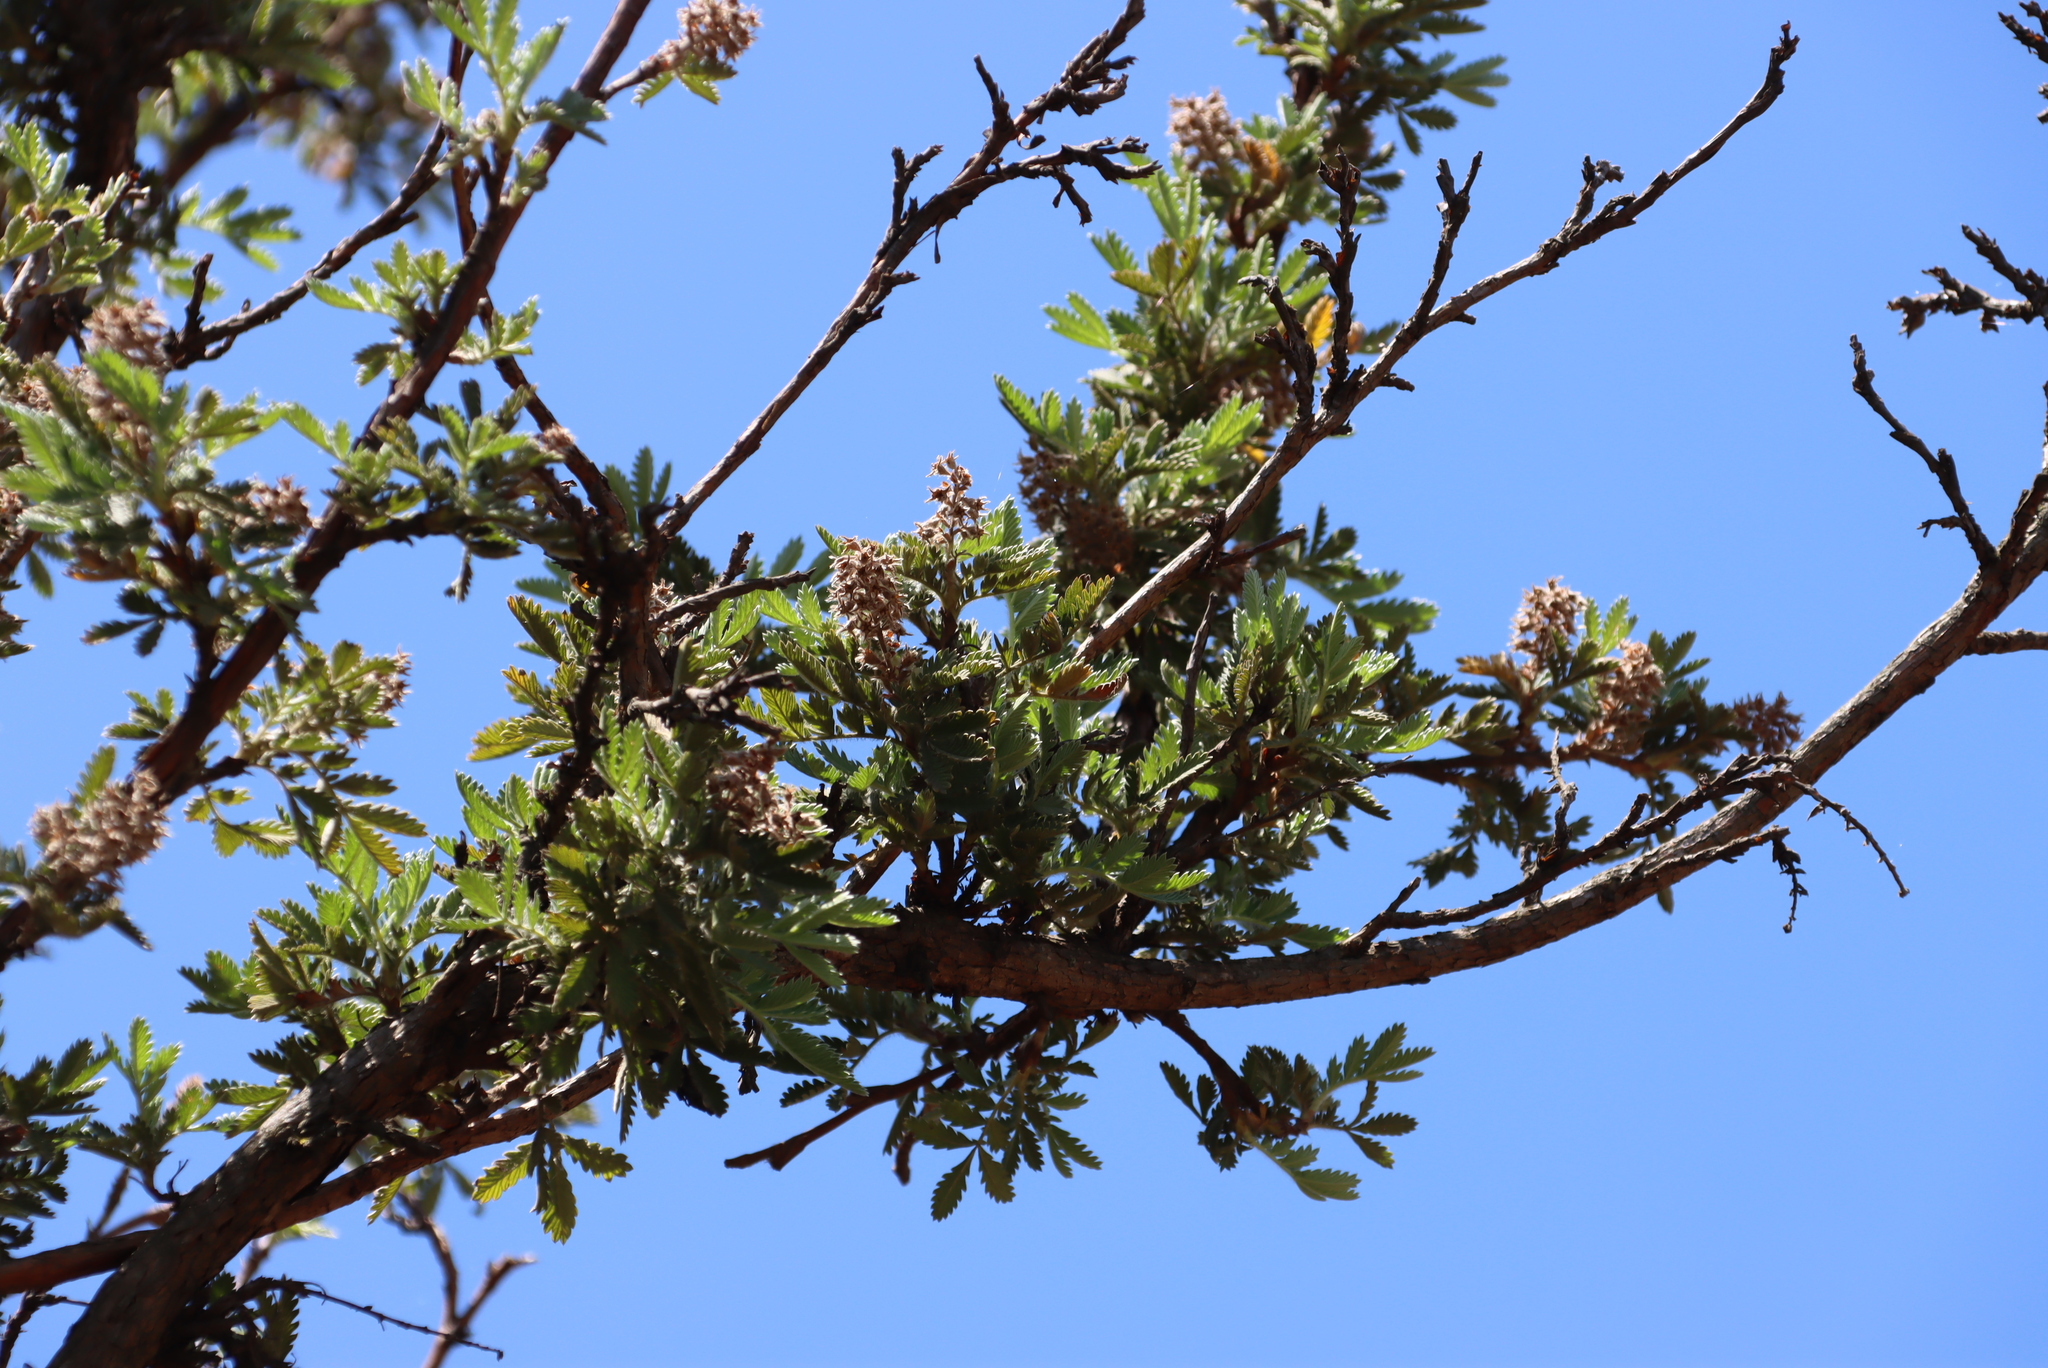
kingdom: Plantae
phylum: Tracheophyta
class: Magnoliopsida
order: Rosales
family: Rosaceae
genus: Leucosidea
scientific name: Leucosidea sericea
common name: Oldwood
